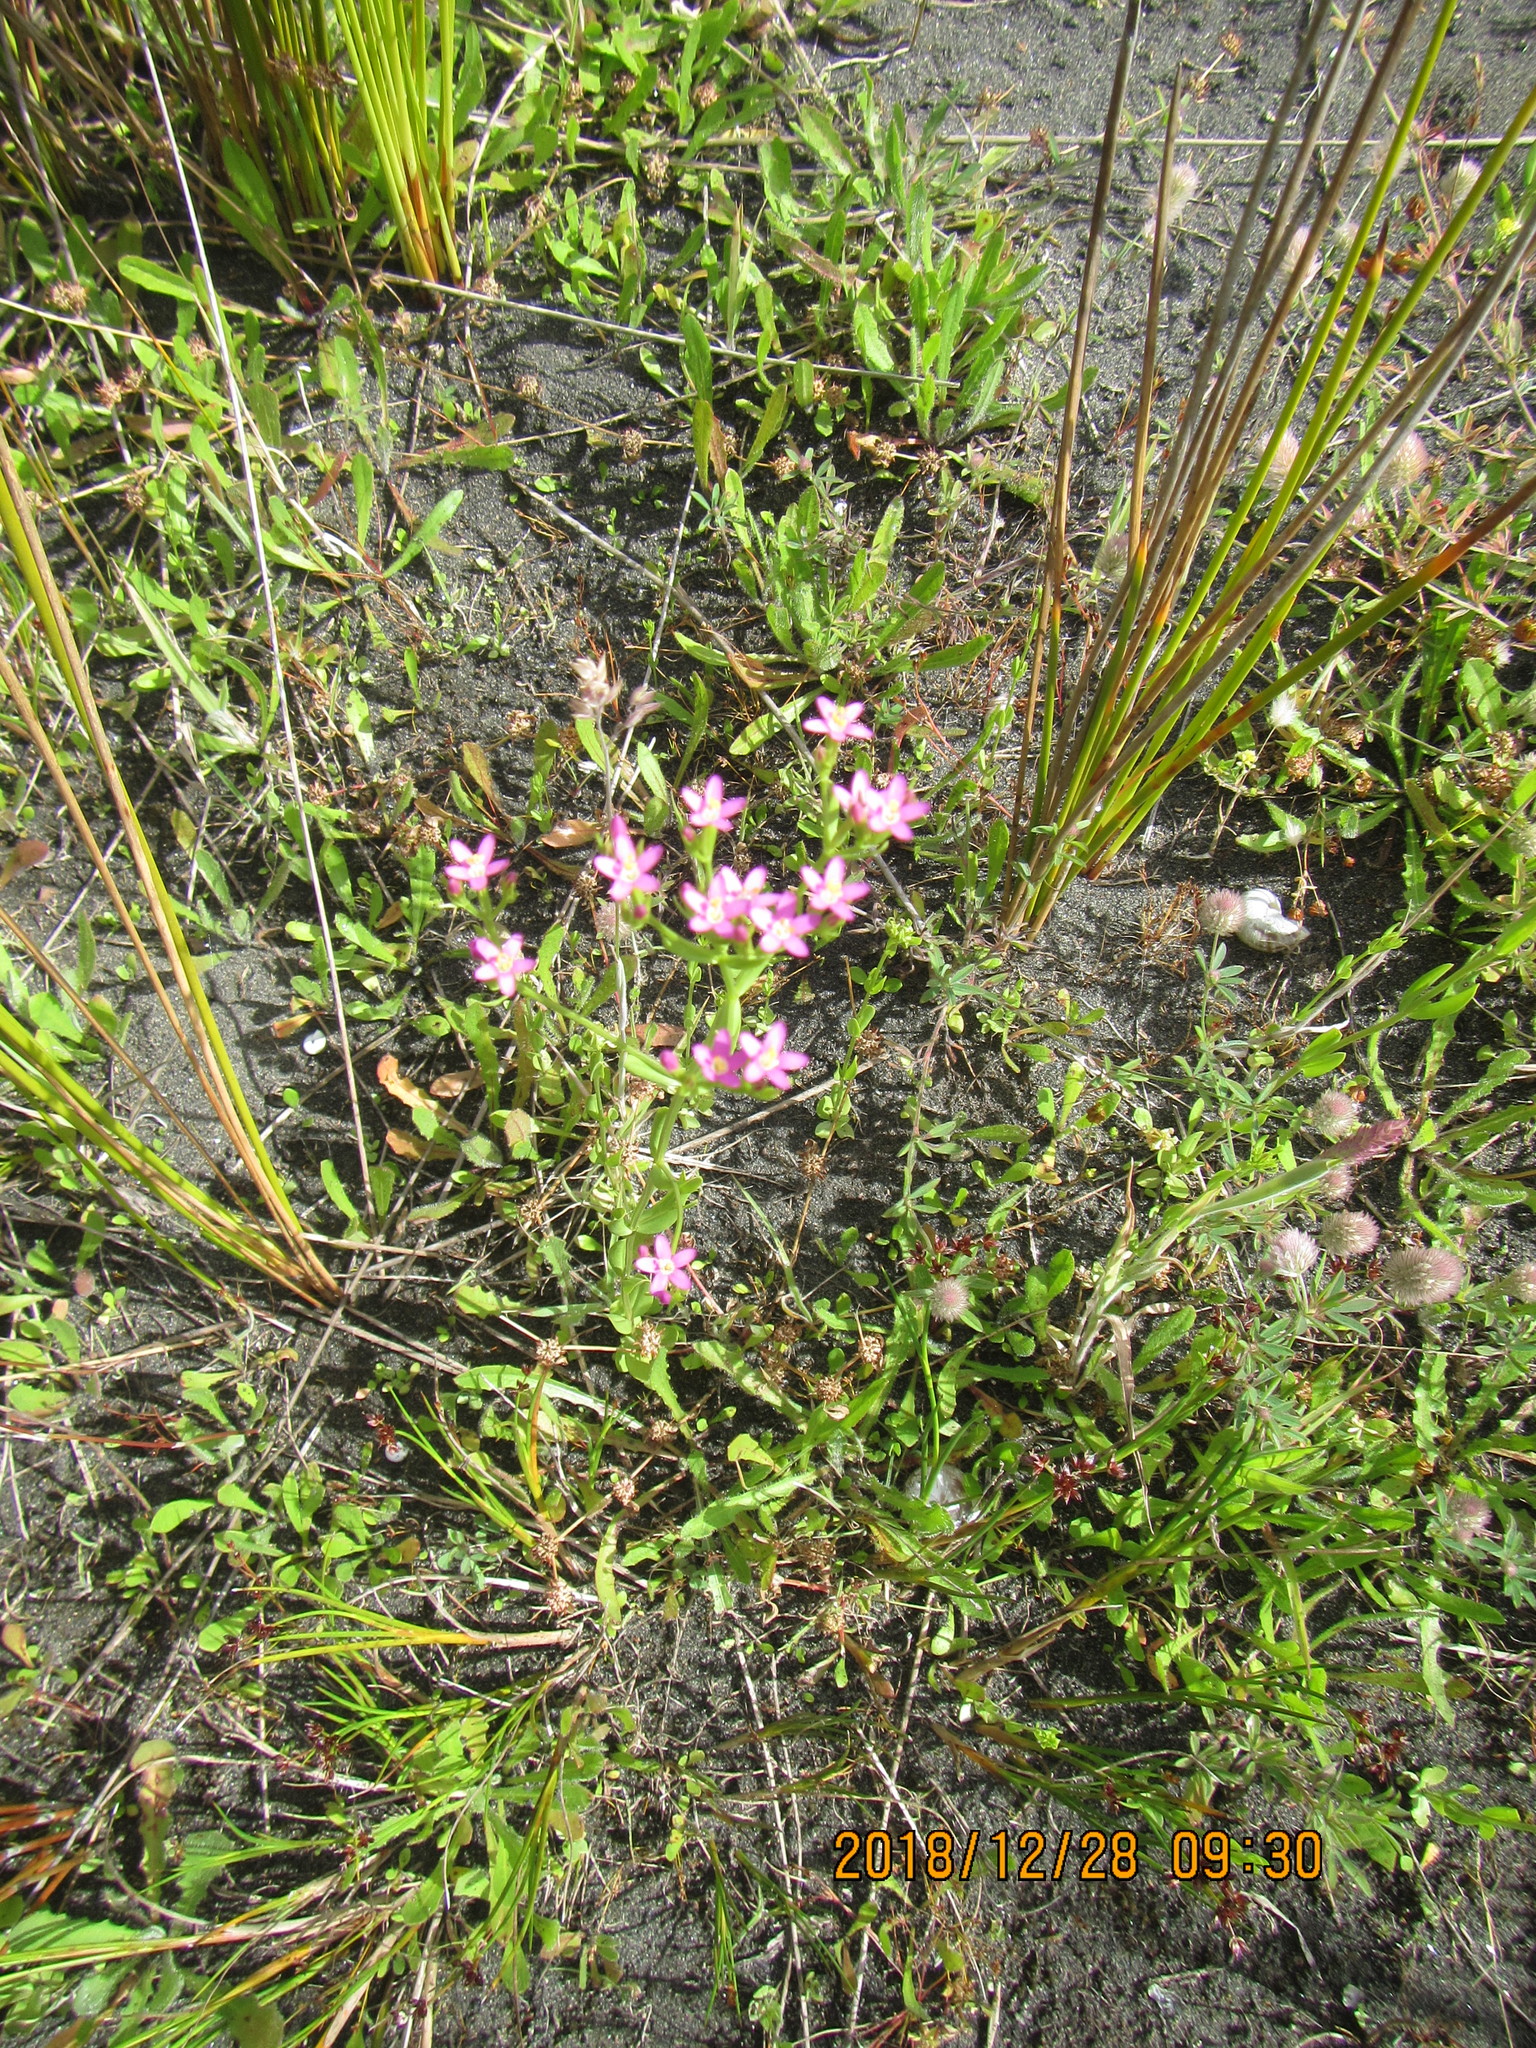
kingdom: Plantae
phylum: Tracheophyta
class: Magnoliopsida
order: Gentianales
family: Gentianaceae
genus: Centaurium
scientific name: Centaurium erythraea
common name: Common centaury
